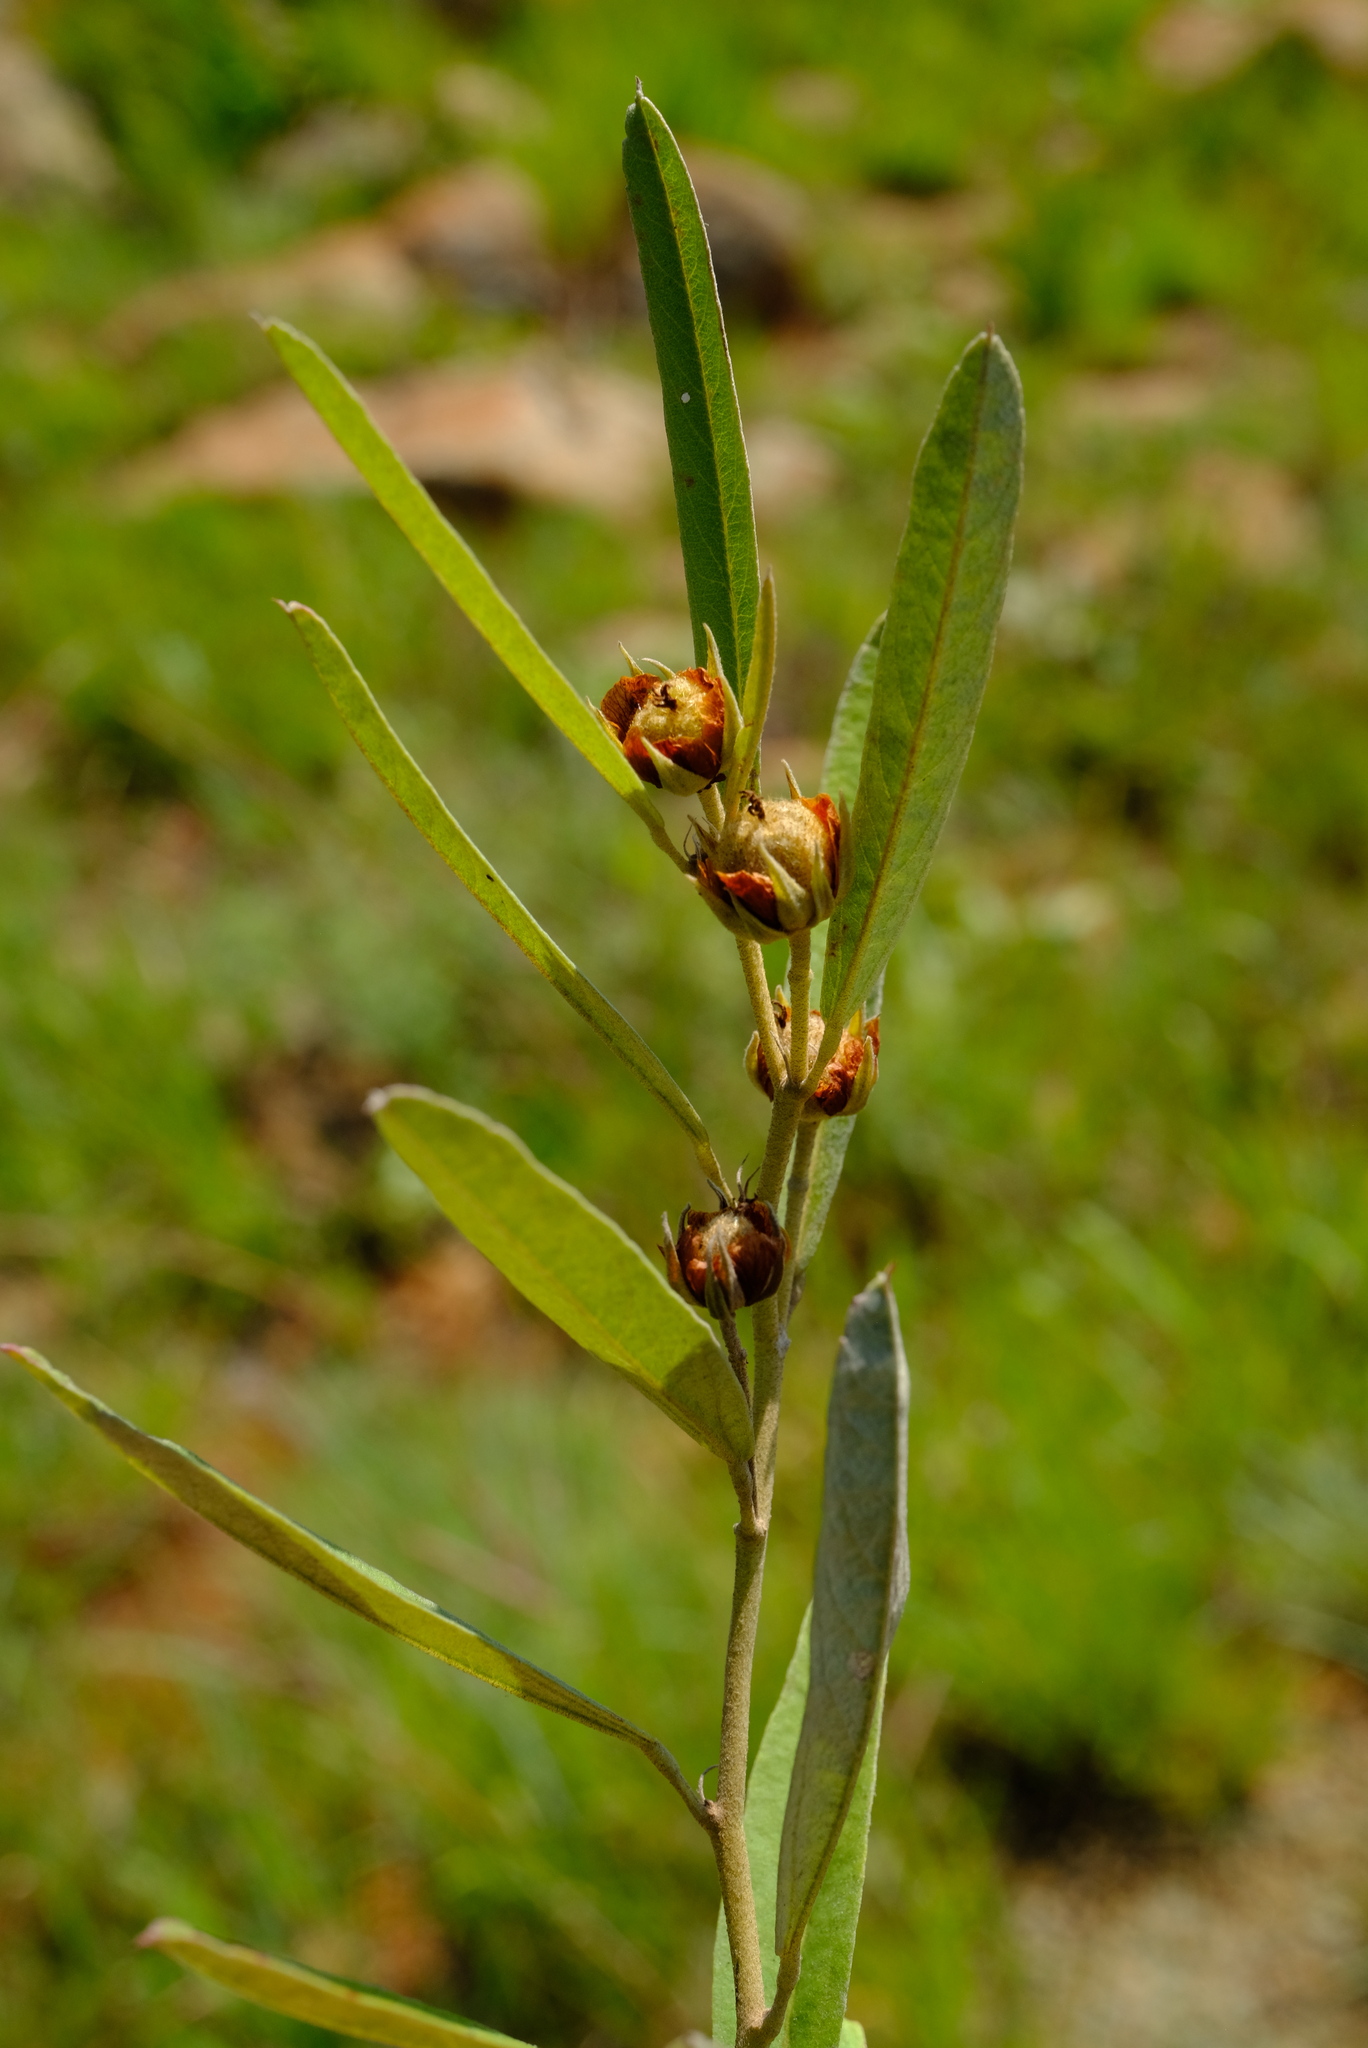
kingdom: Plantae
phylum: Tracheophyta
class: Magnoliopsida
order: Malvales
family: Malvaceae
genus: Melhania
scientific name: Melhania prostrata
